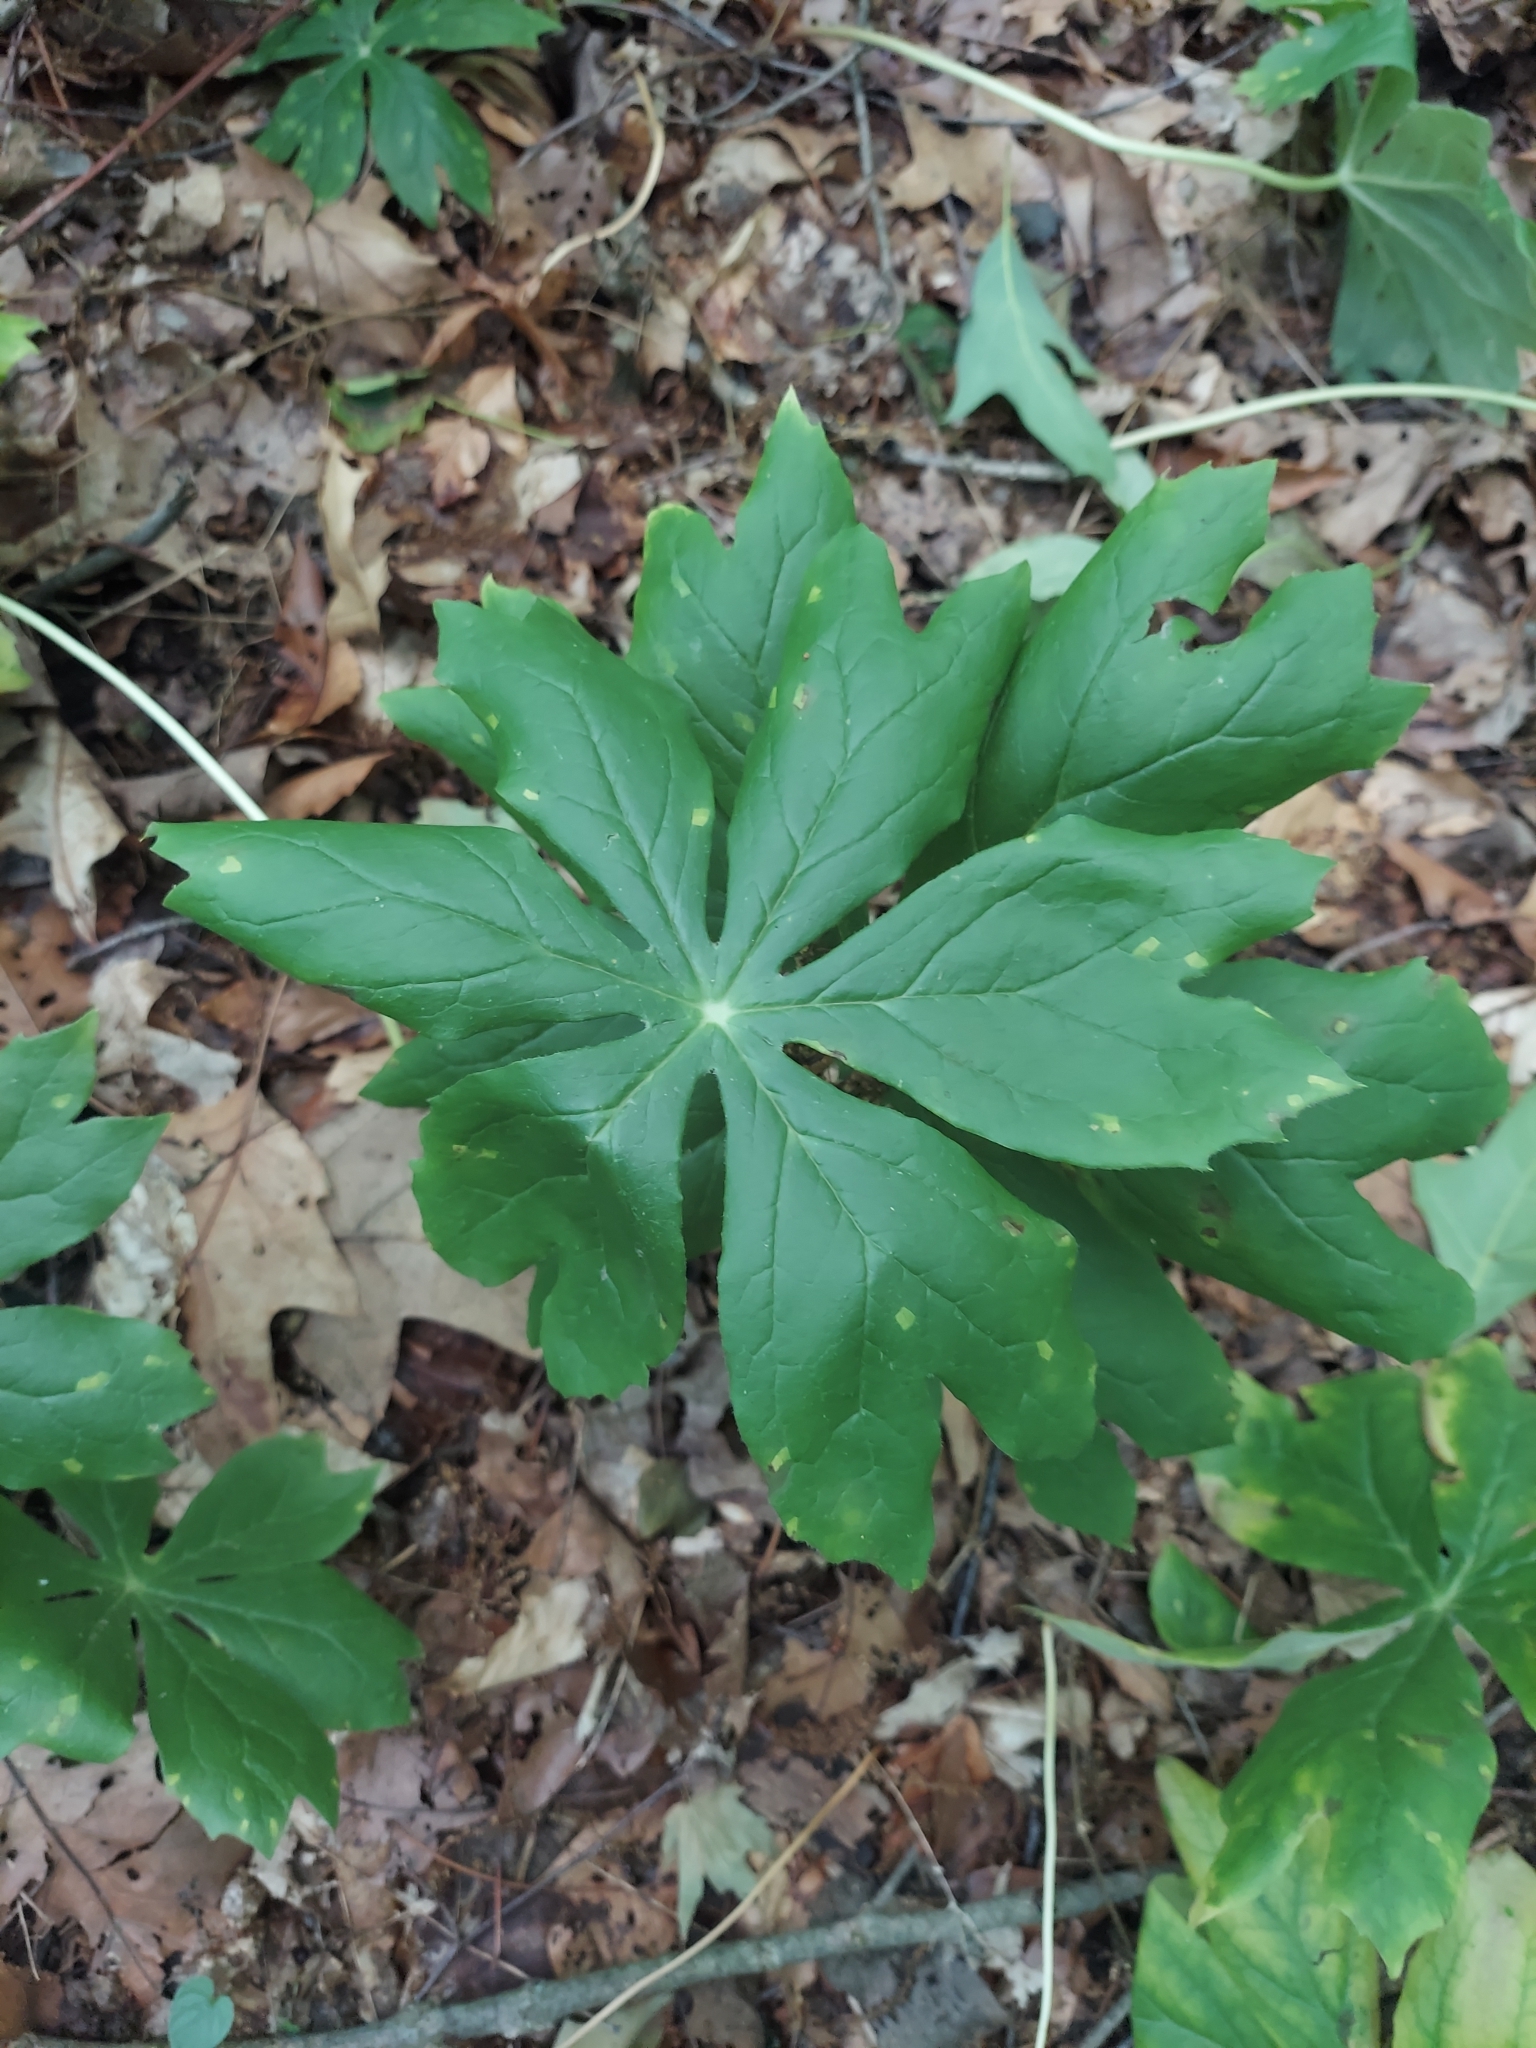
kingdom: Plantae
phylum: Tracheophyta
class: Magnoliopsida
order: Ranunculales
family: Berberidaceae
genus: Podophyllum
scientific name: Podophyllum peltatum
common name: Wild mandrake
